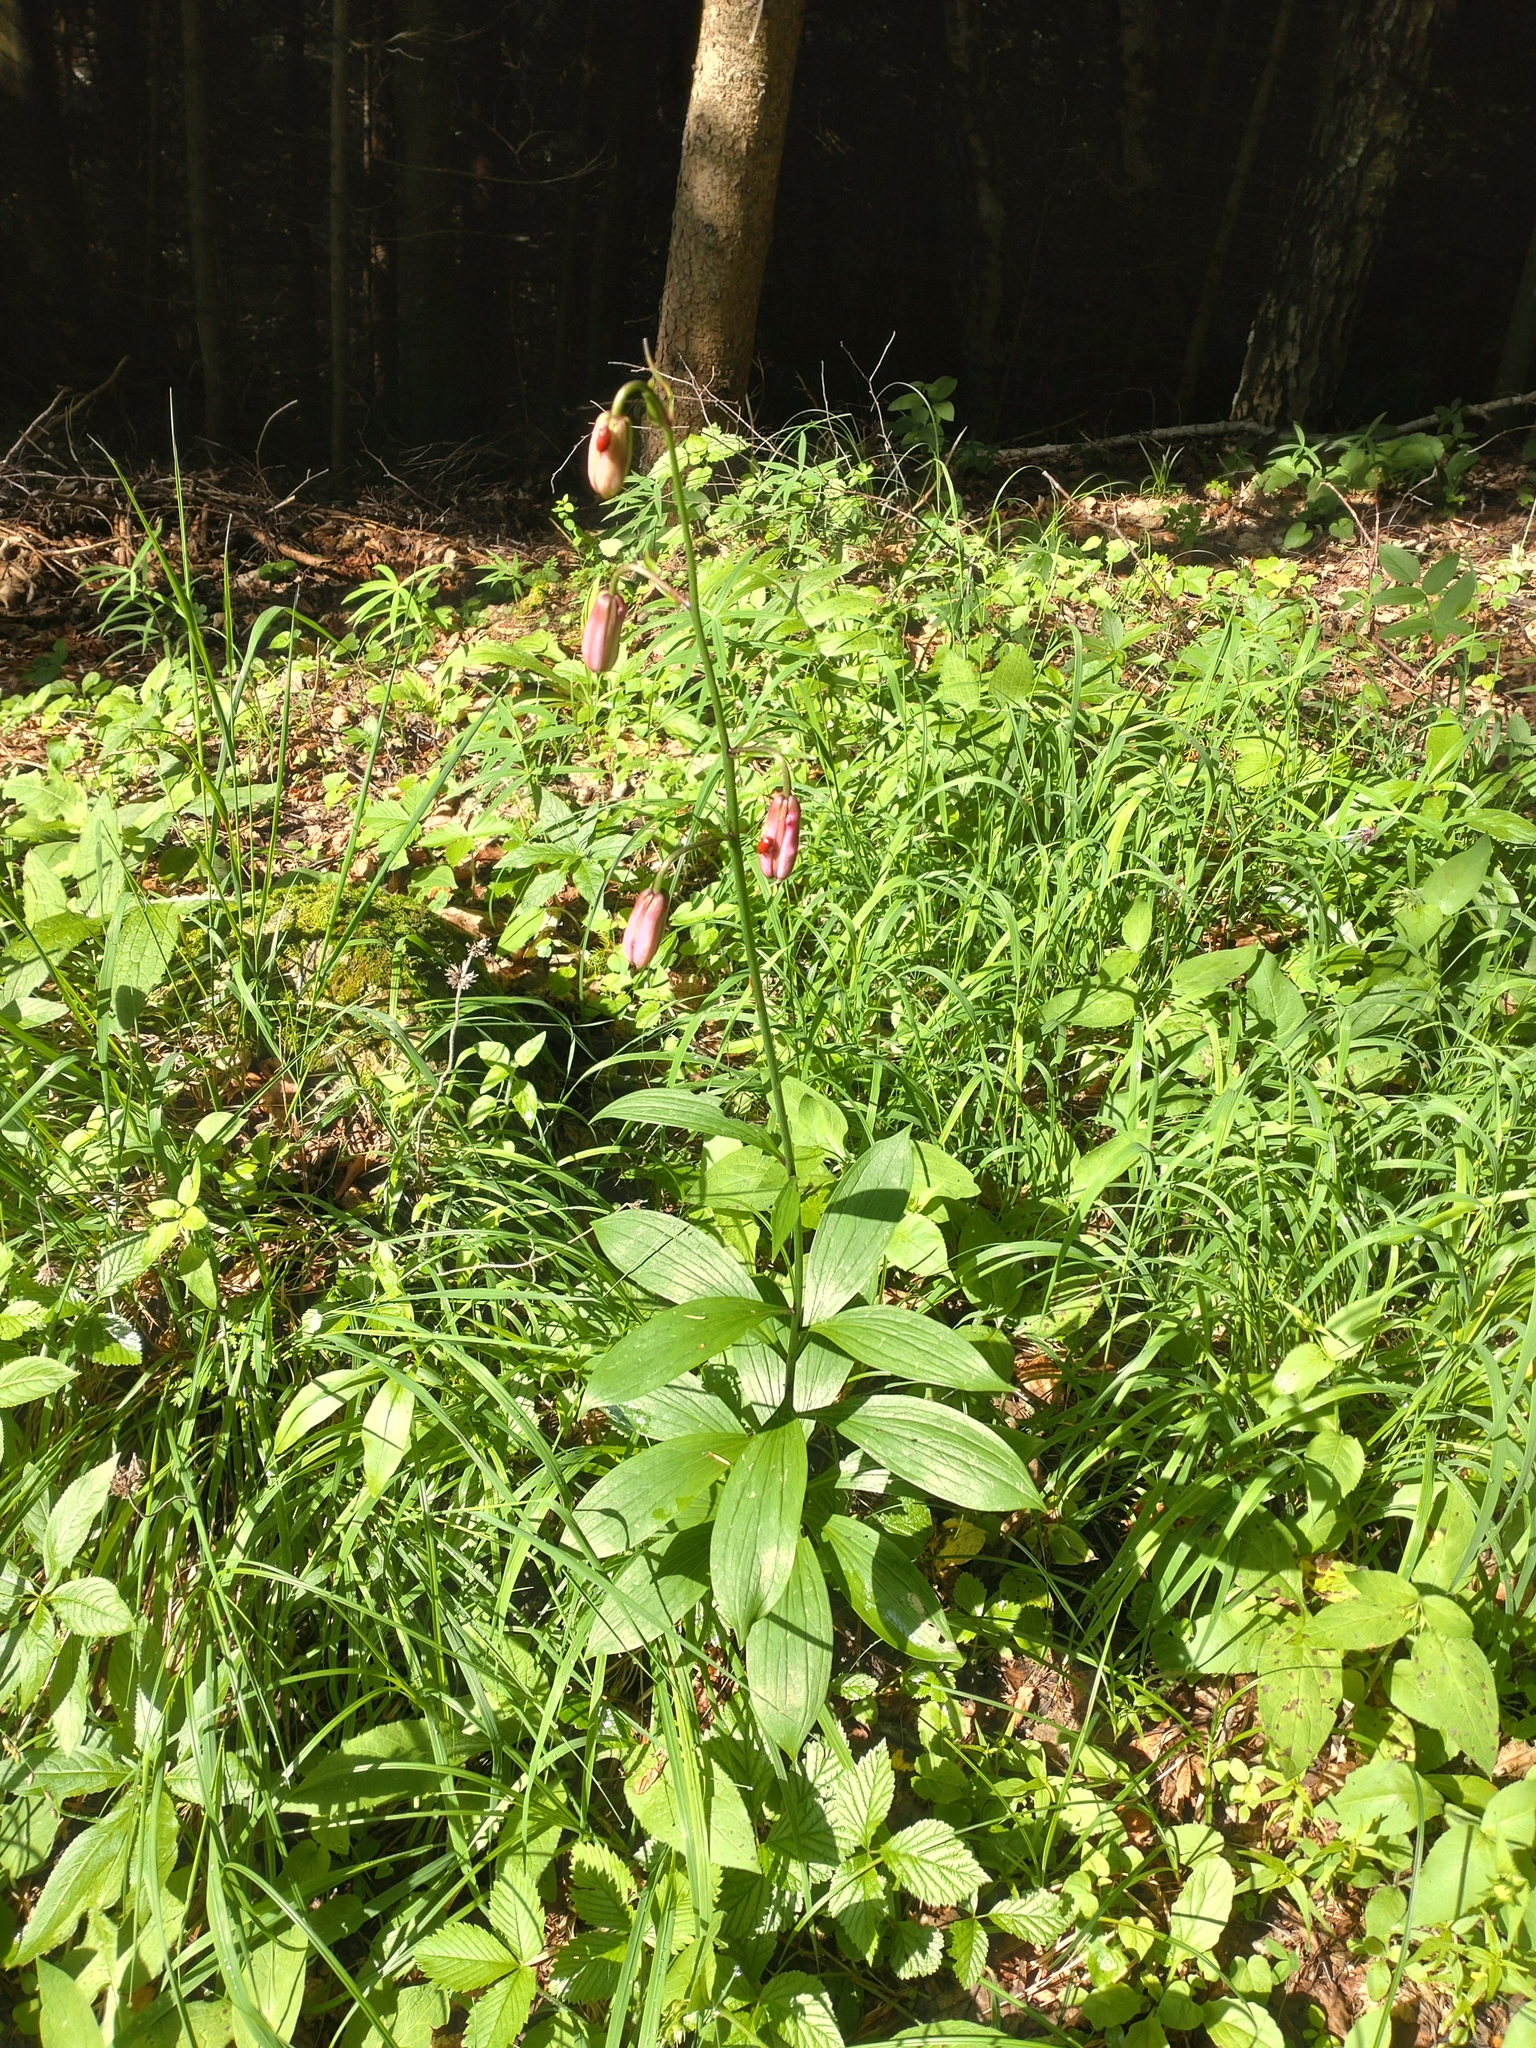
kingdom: Plantae
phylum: Tracheophyta
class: Liliopsida
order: Liliales
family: Liliaceae
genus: Lilium
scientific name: Lilium martagon
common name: Martagon lily
